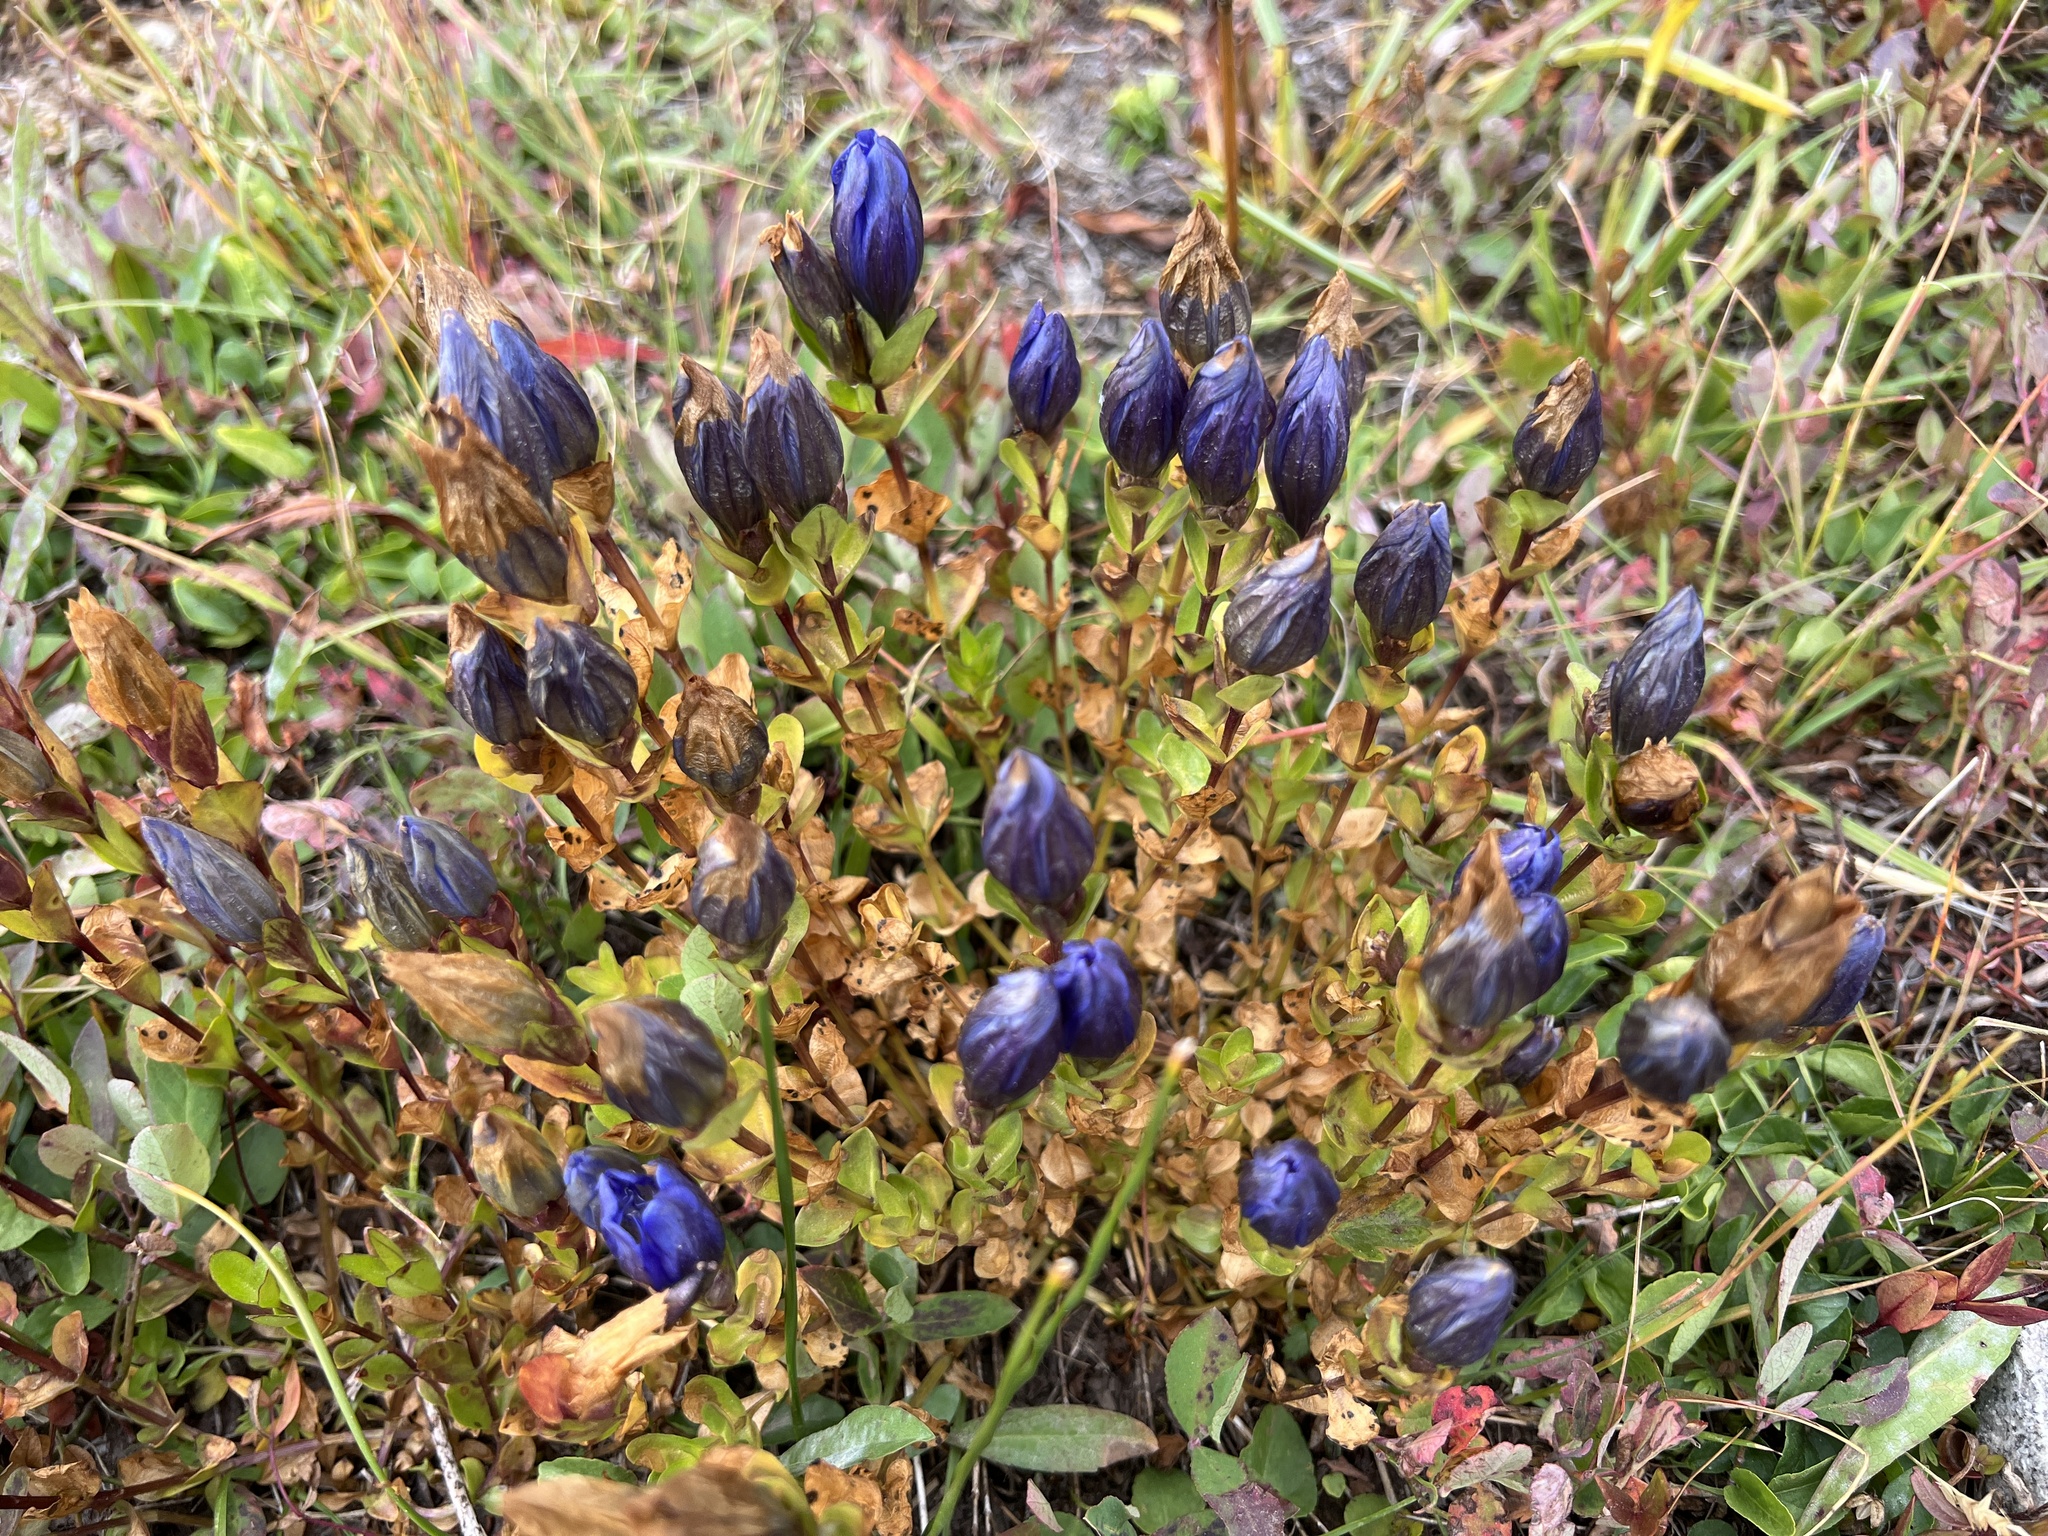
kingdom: Plantae
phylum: Tracheophyta
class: Magnoliopsida
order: Gentianales
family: Gentianaceae
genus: Gentiana
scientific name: Gentiana calycosa
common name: Rainier pleated gentian
